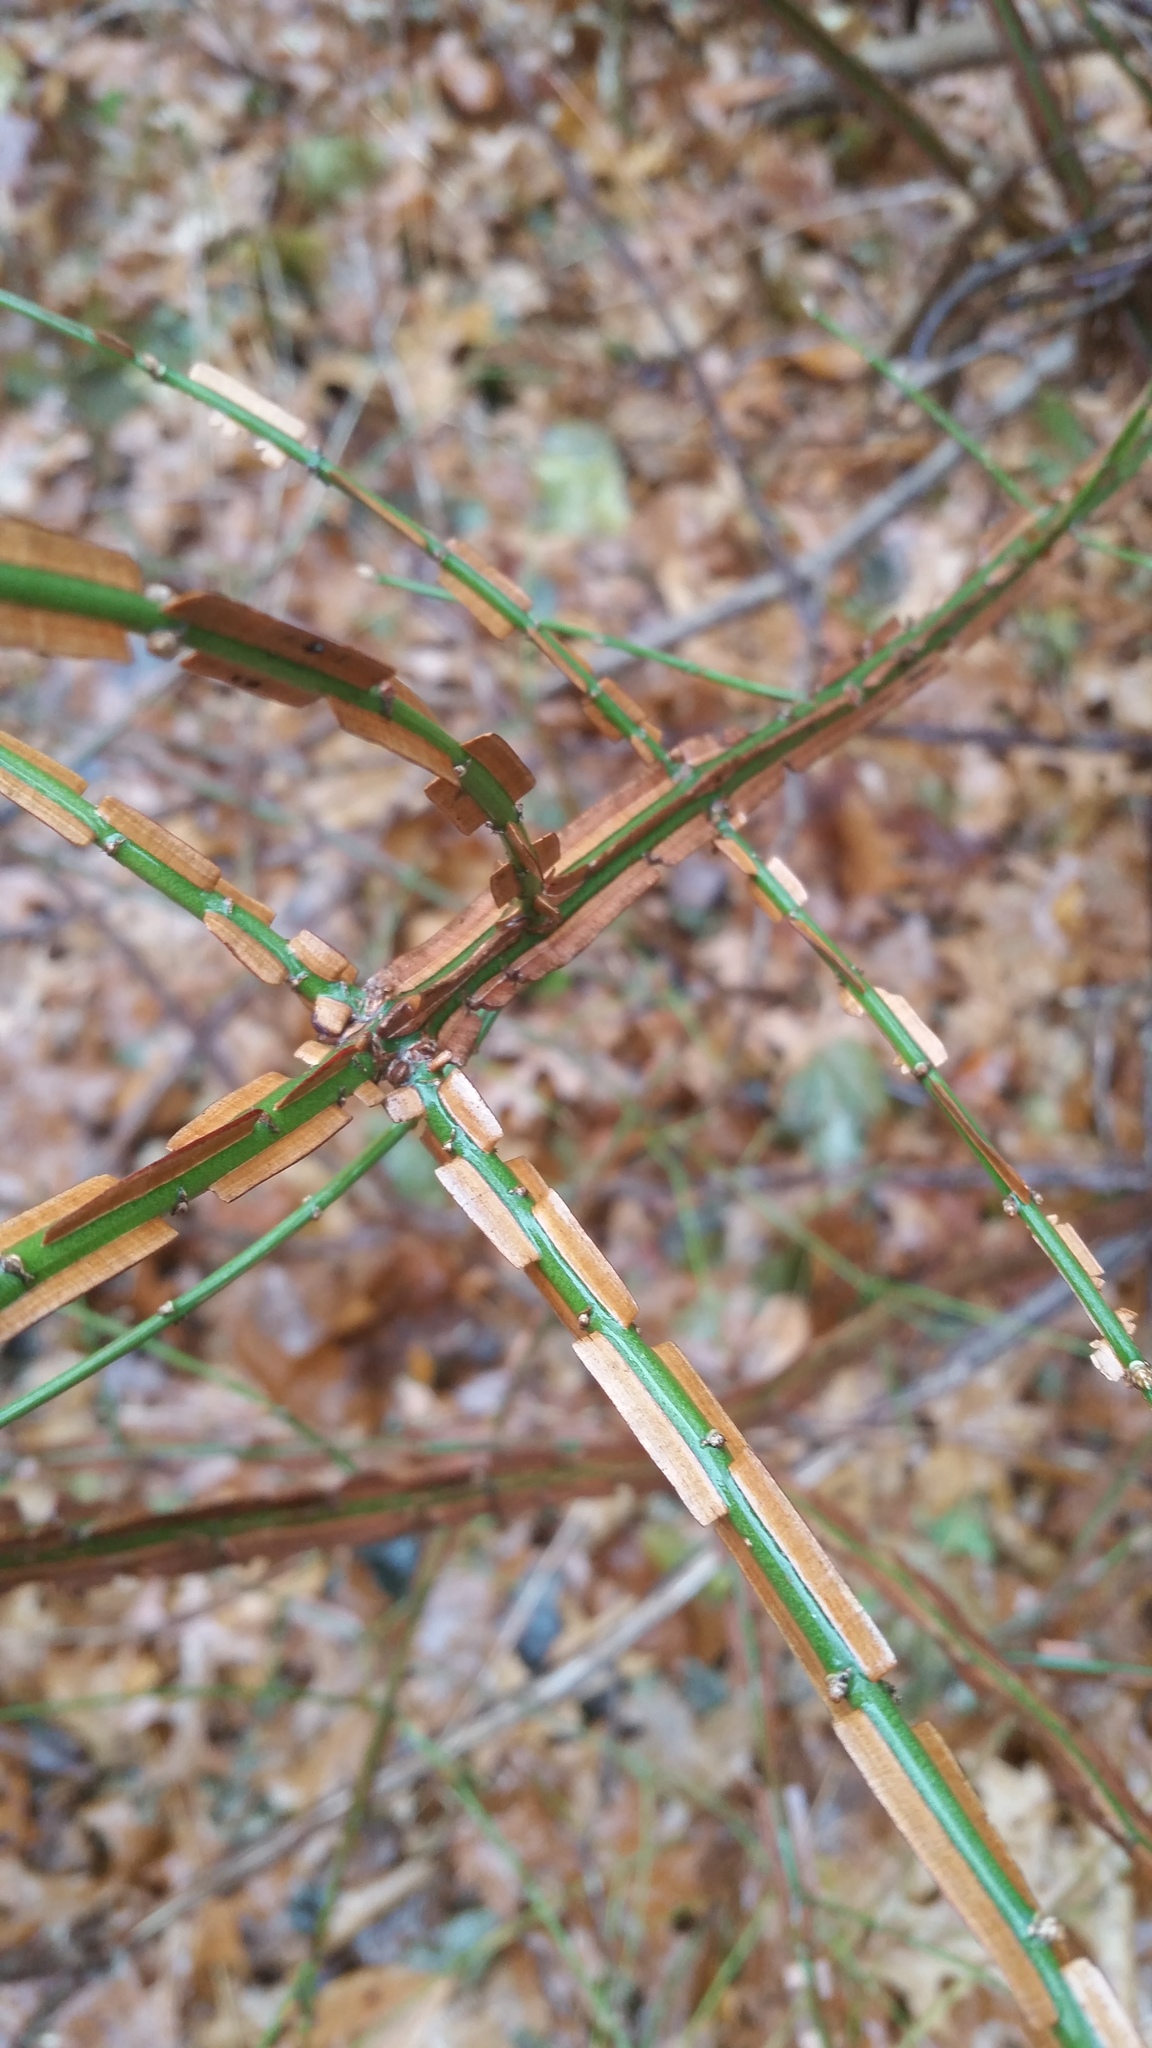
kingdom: Plantae
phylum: Tracheophyta
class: Magnoliopsida
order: Celastrales
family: Celastraceae
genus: Euonymus
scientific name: Euonymus alatus
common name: Winged euonymus
